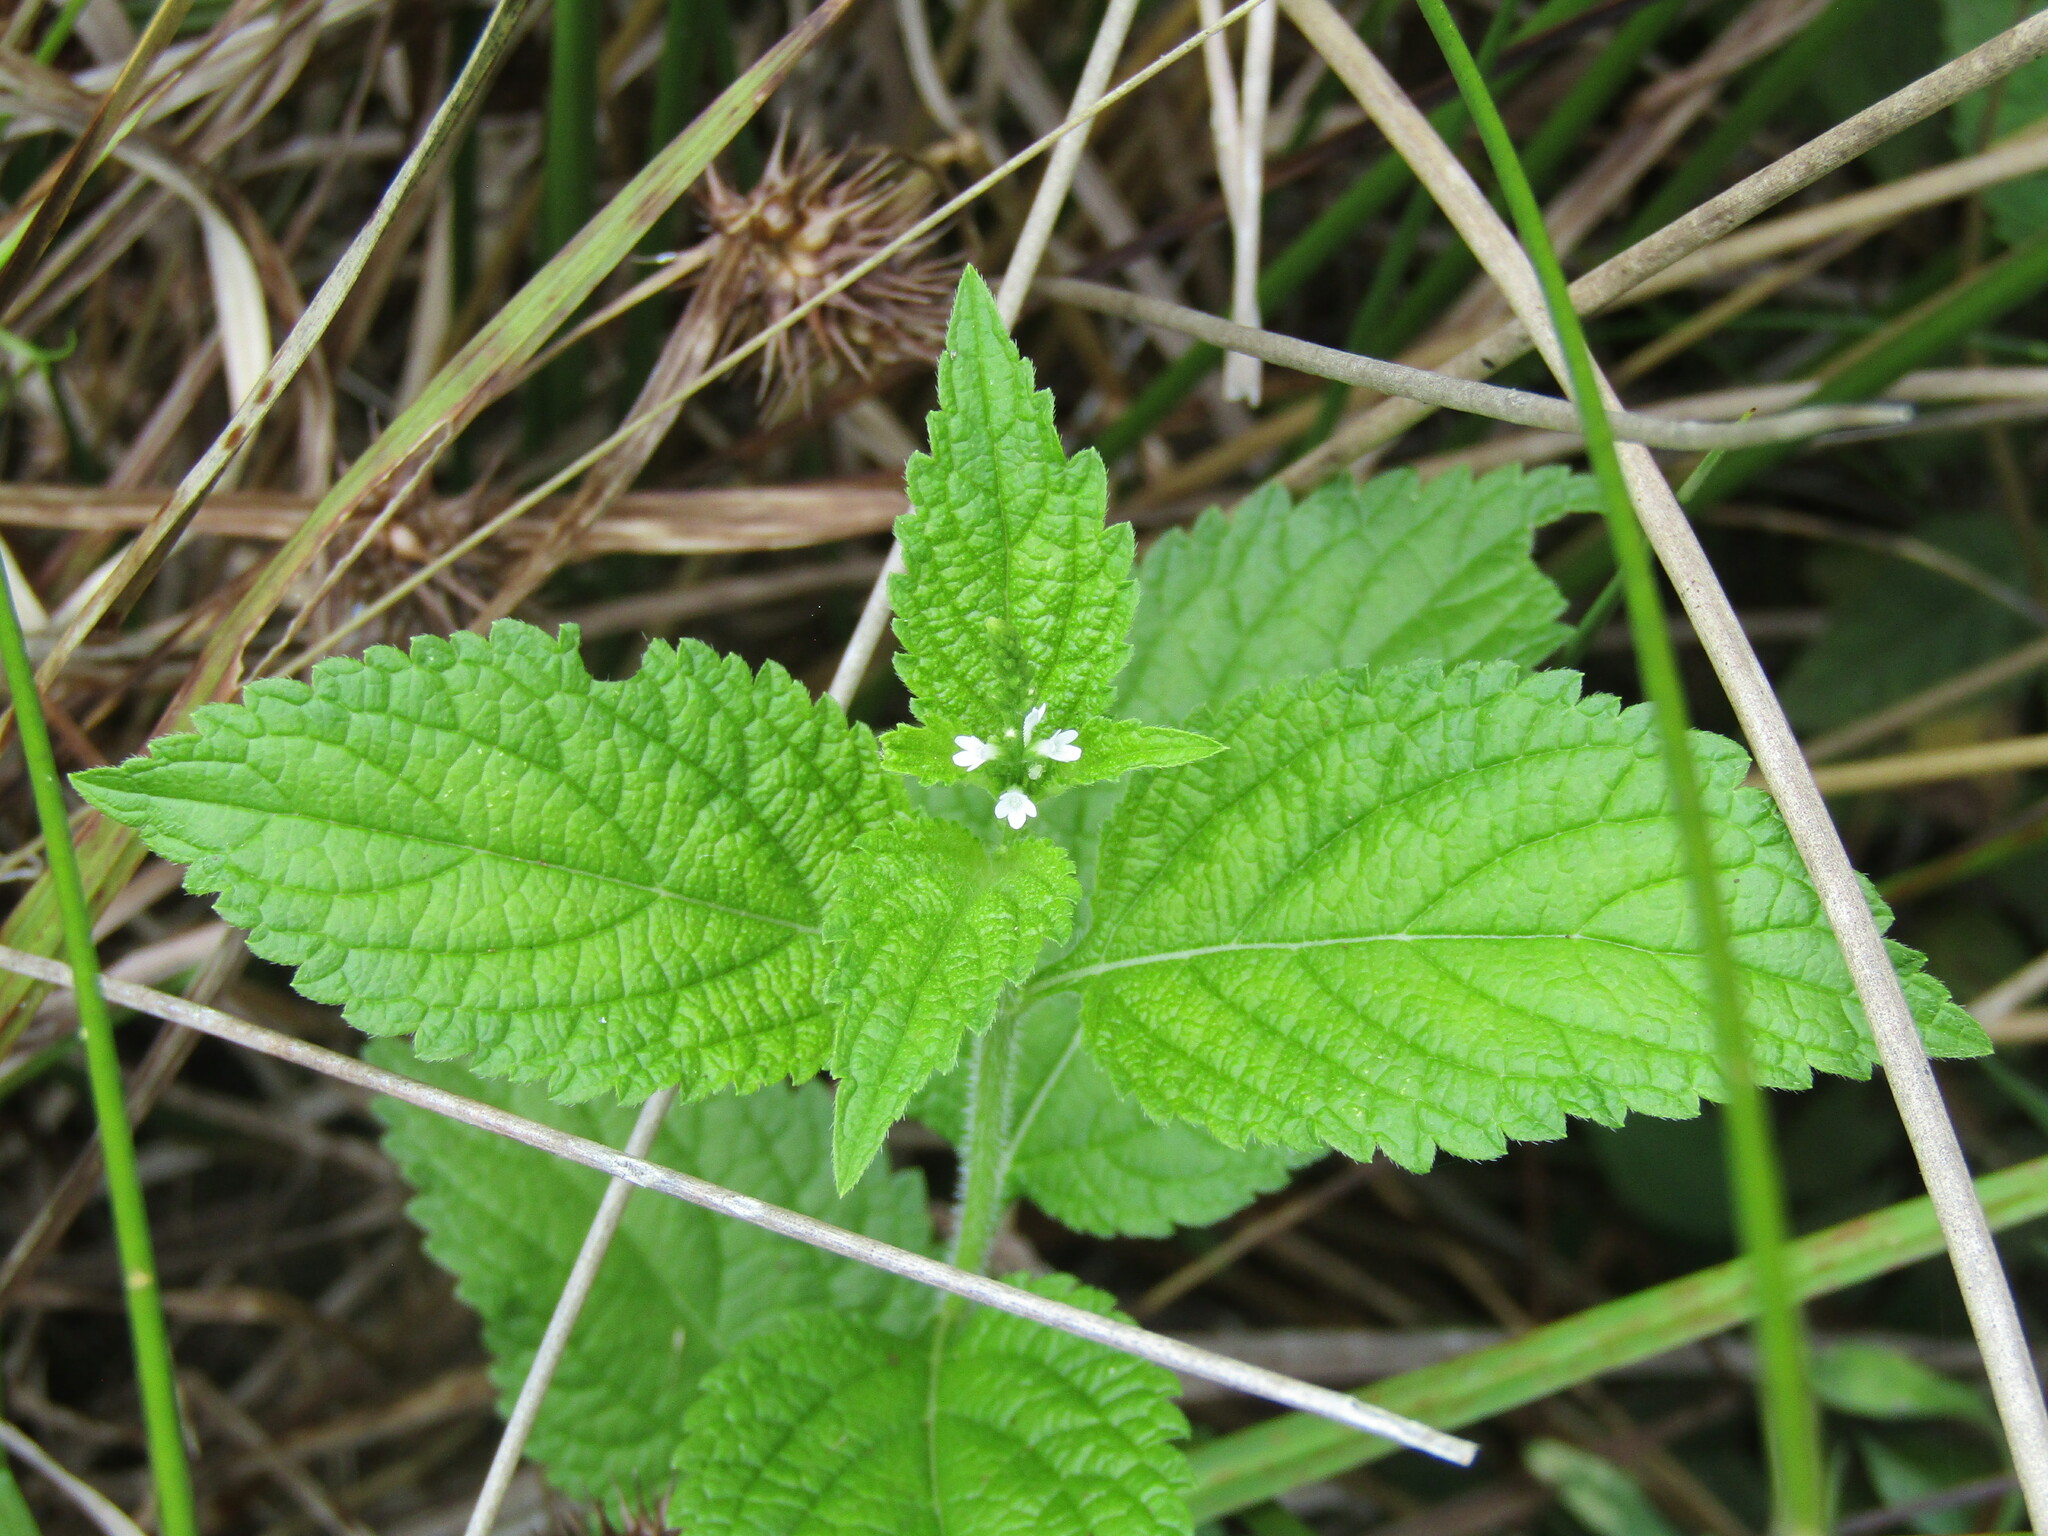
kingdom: Plantae
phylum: Tracheophyta
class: Magnoliopsida
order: Lamiales
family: Verbenaceae
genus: Verbena
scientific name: Verbena urticifolia
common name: Nettle-leaved vervain
